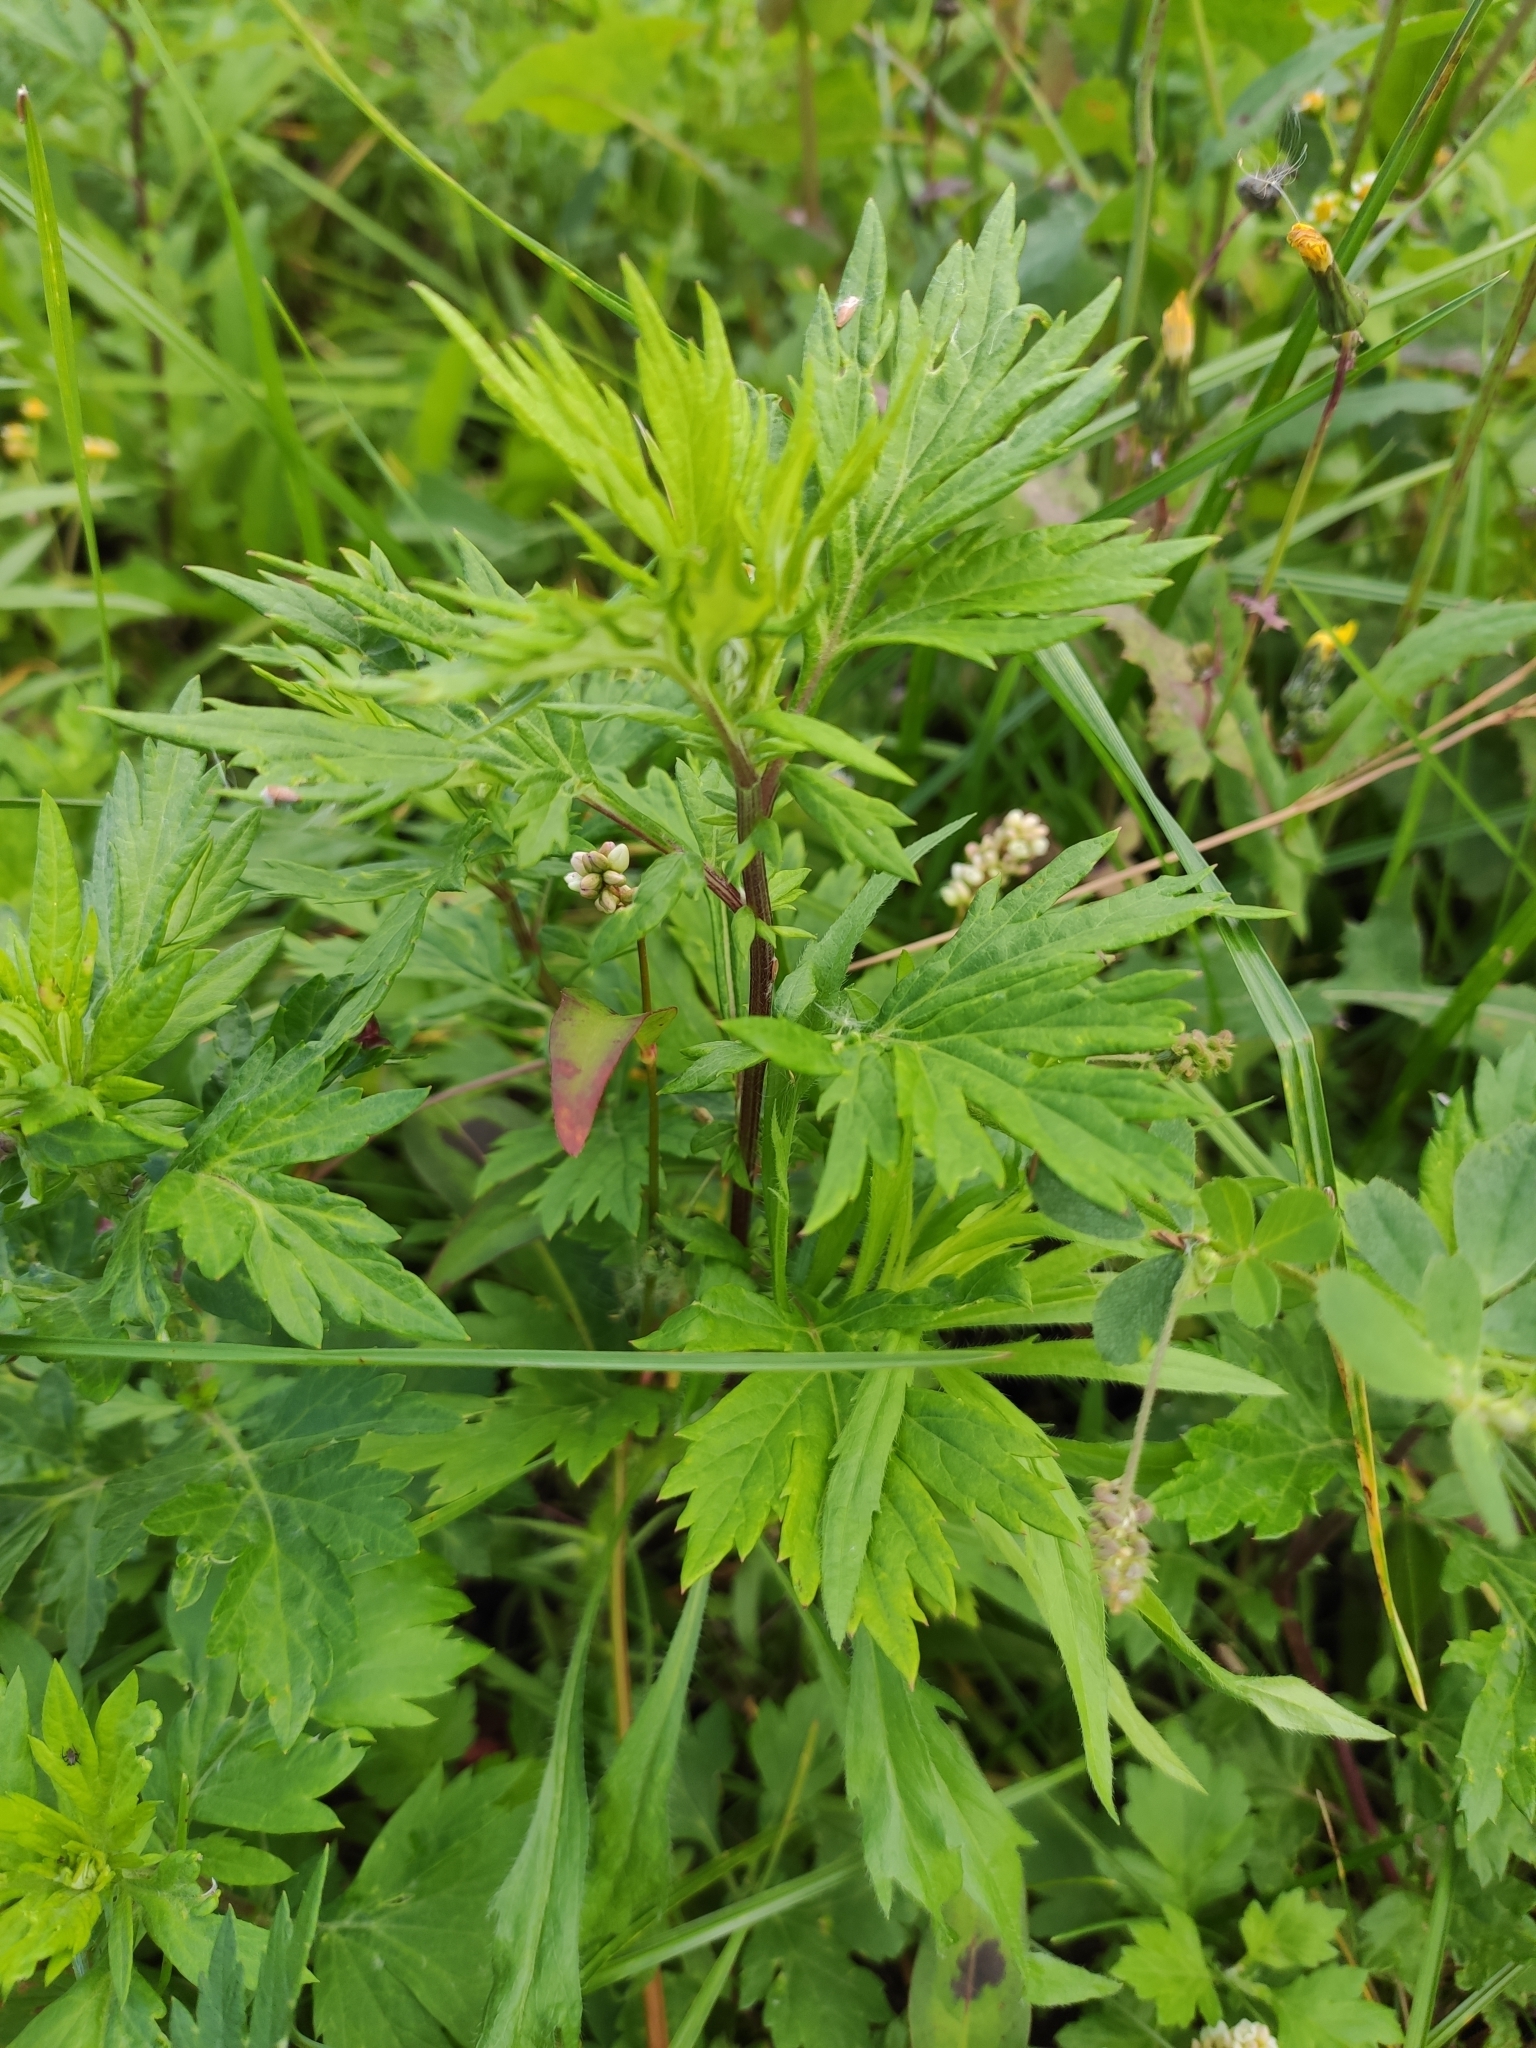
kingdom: Plantae
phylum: Tracheophyta
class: Magnoliopsida
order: Asterales
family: Asteraceae
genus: Artemisia
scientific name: Artemisia vulgaris
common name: Mugwort
